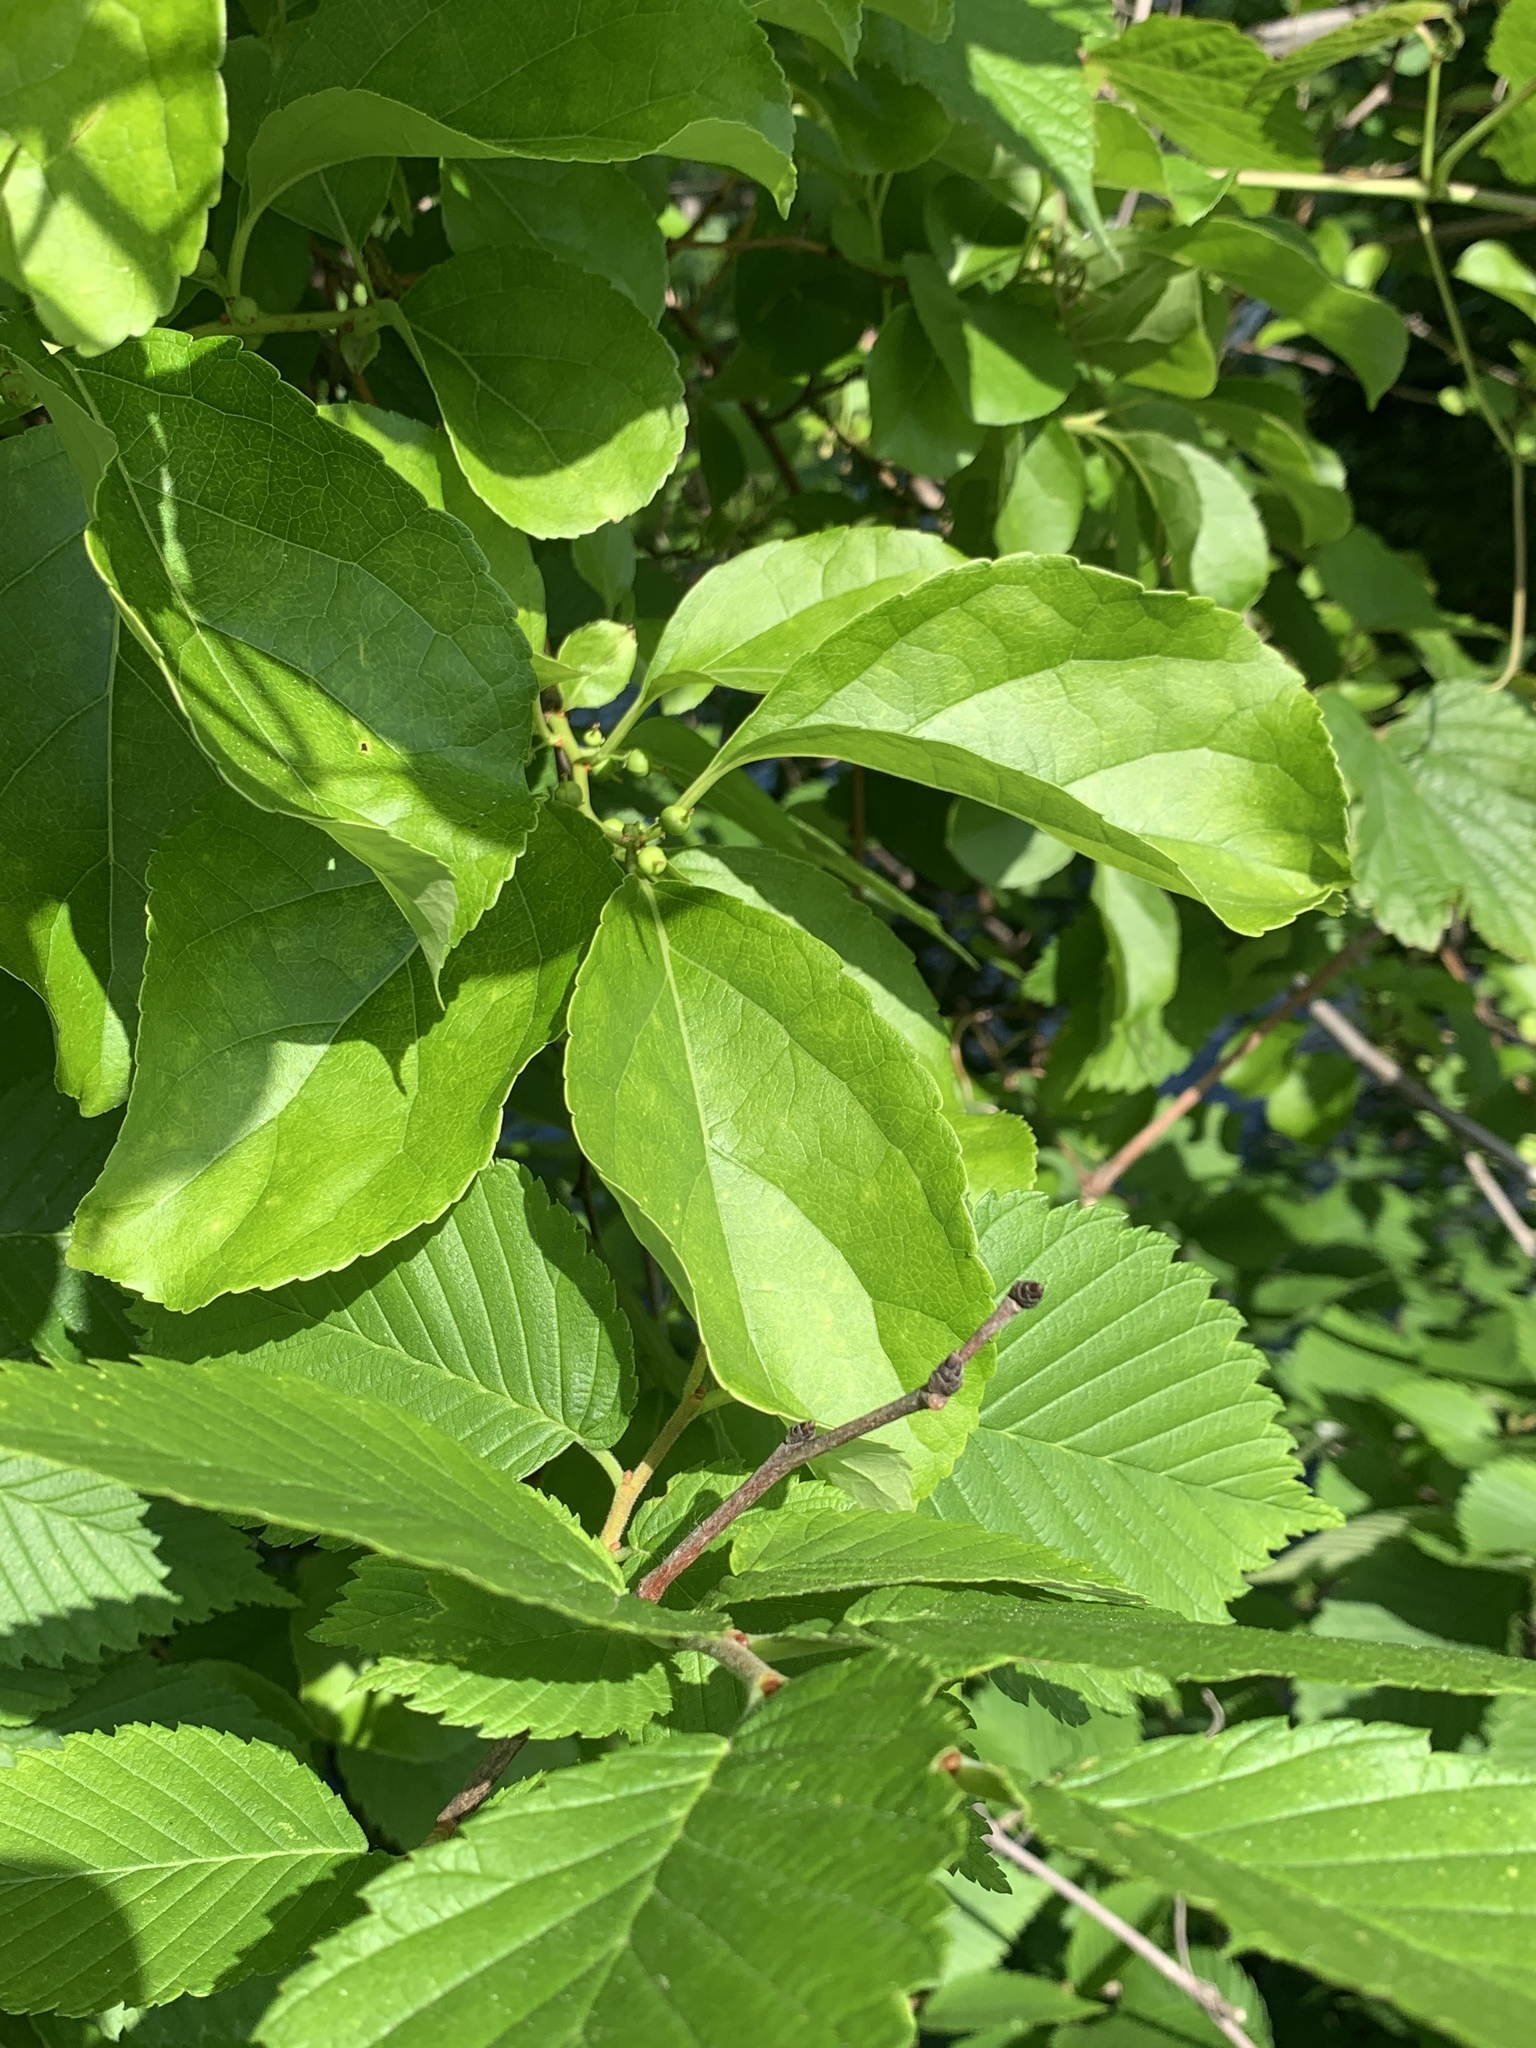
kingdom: Plantae
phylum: Tracheophyta
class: Magnoliopsida
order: Celastrales
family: Celastraceae
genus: Celastrus
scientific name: Celastrus orbiculatus
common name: Oriental bittersweet
